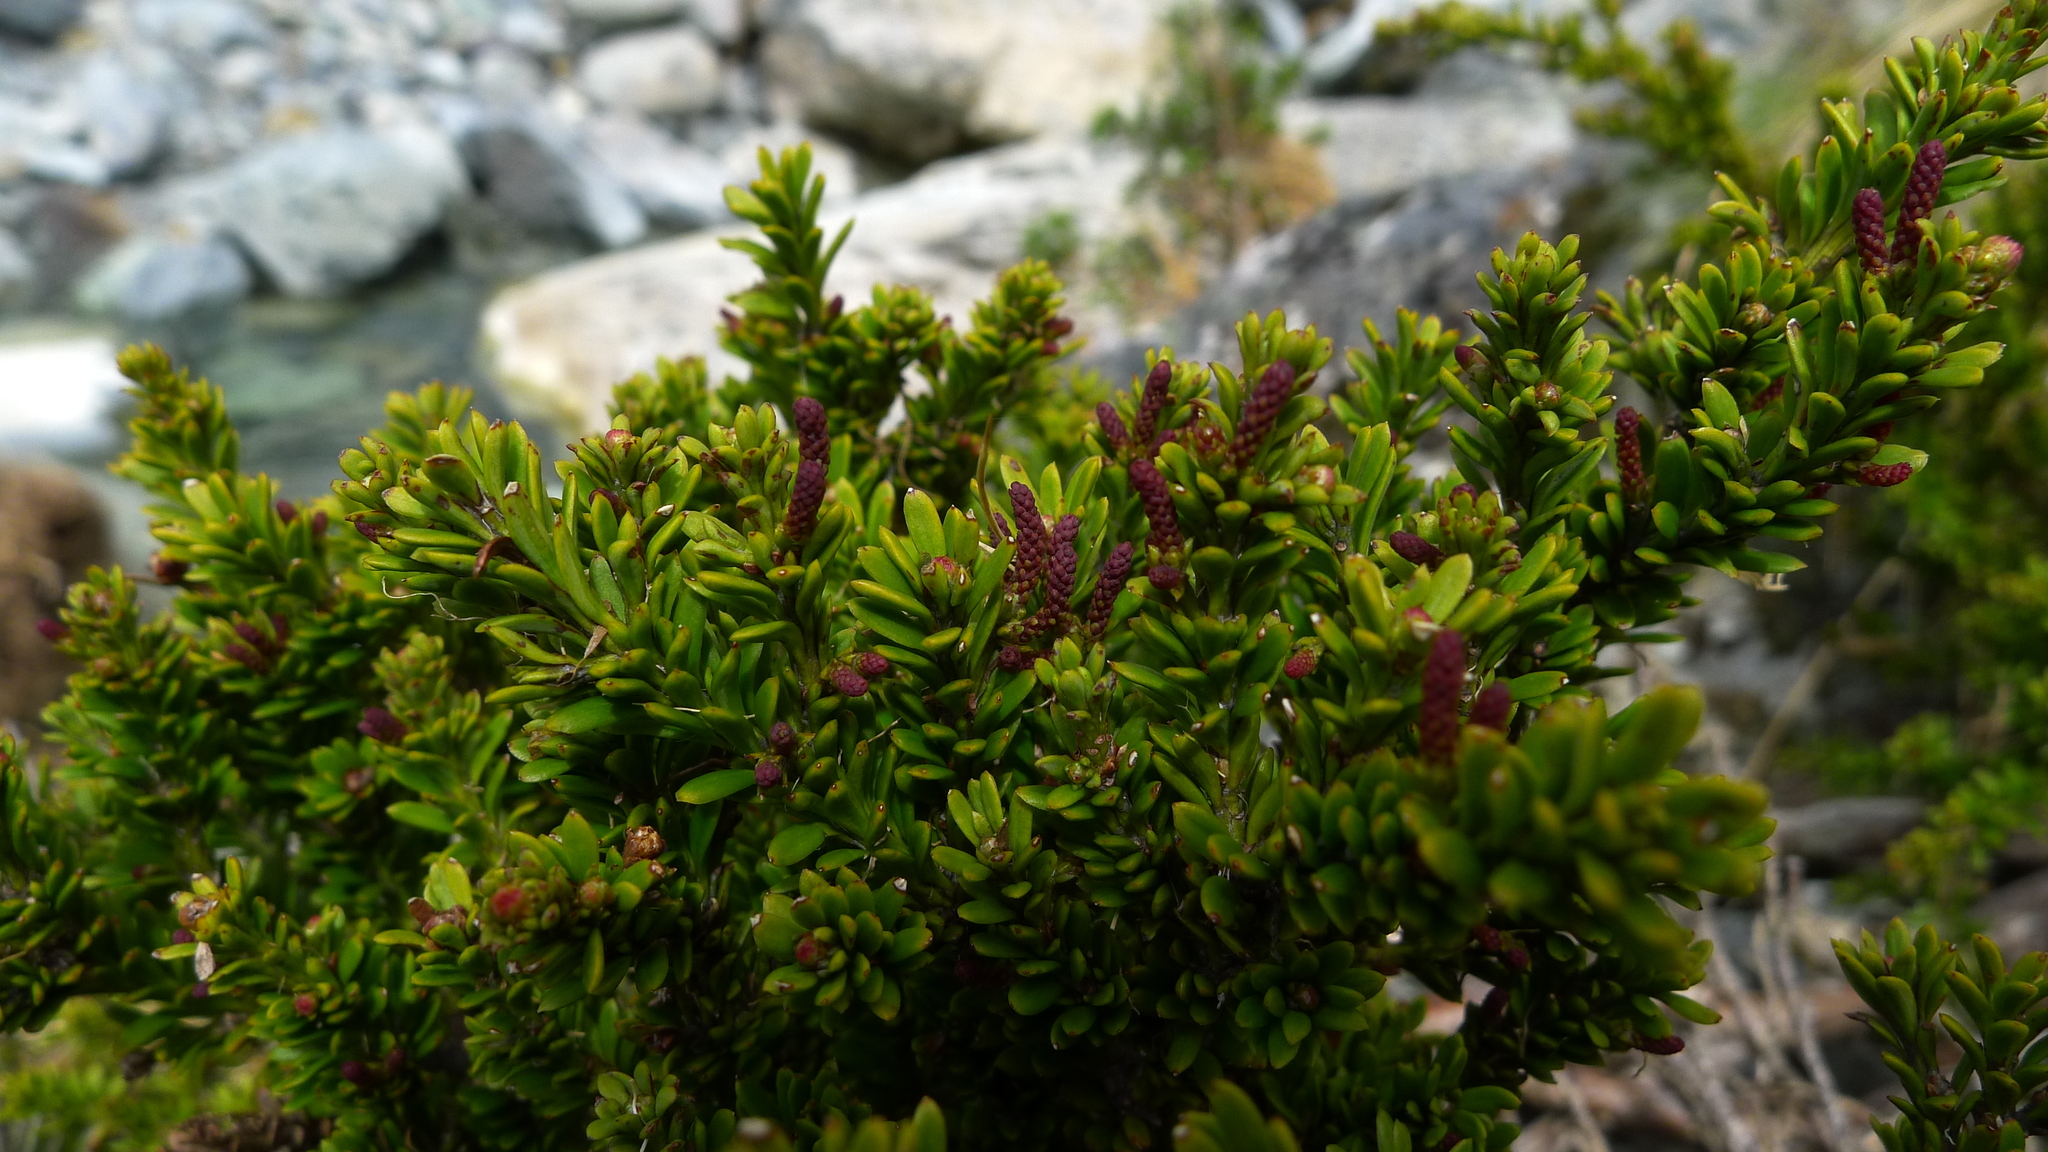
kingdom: Plantae
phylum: Tracheophyta
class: Pinopsida
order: Pinales
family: Podocarpaceae
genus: Podocarpus
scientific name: Podocarpus nivalis
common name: Alpine totara
